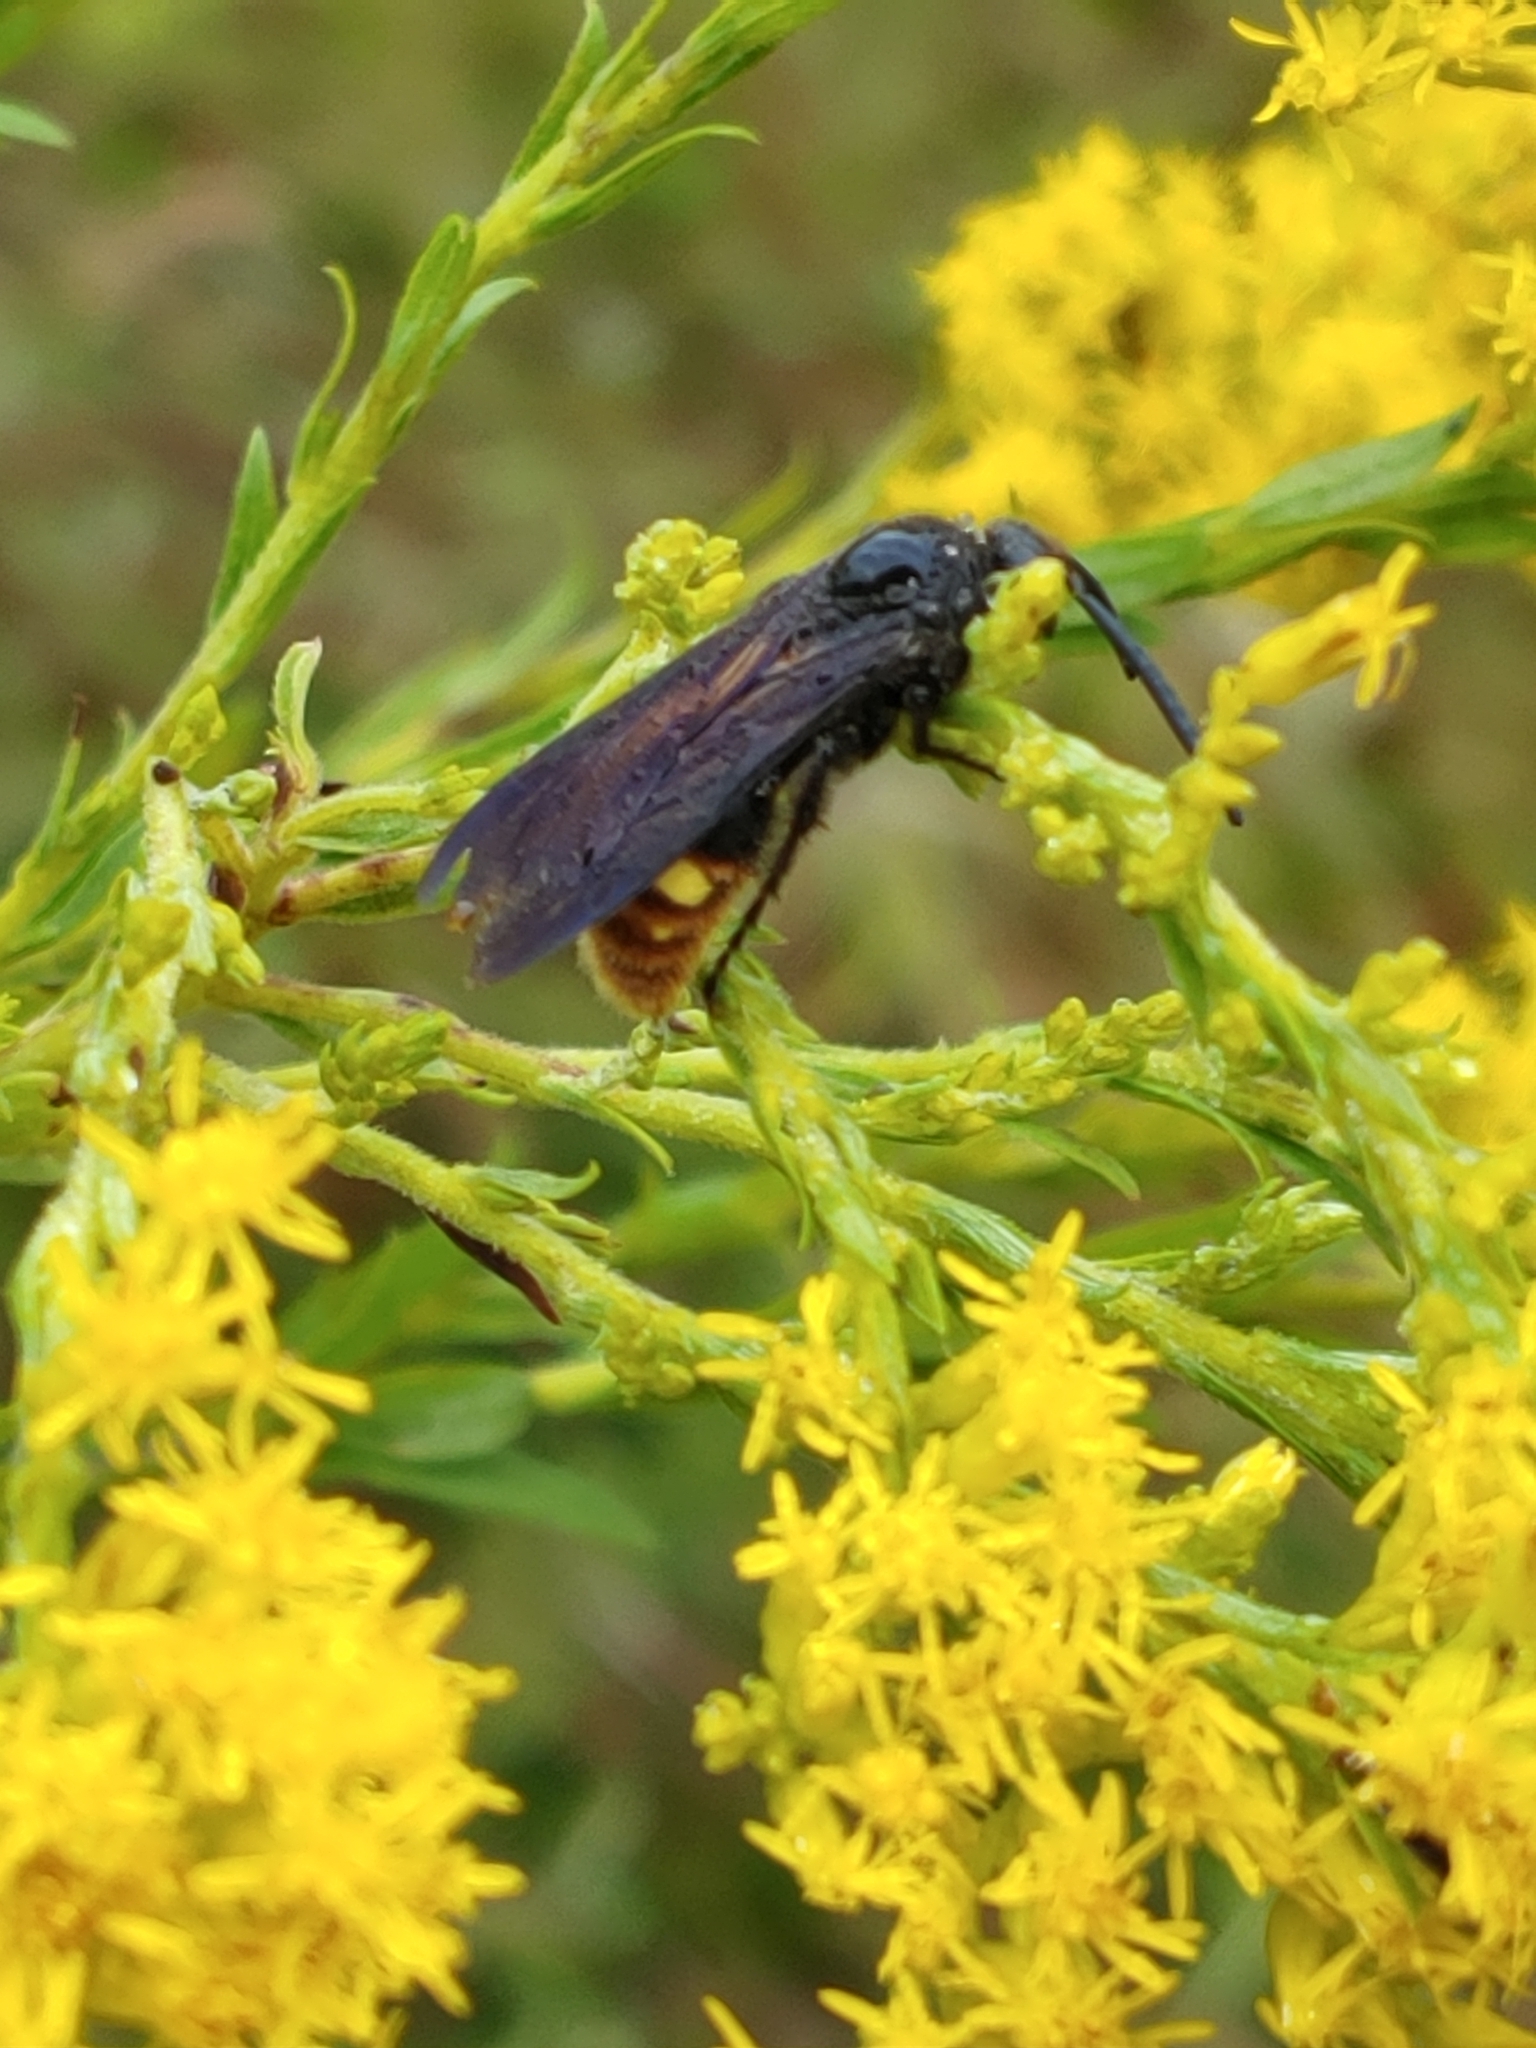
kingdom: Animalia
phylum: Arthropoda
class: Insecta
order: Hymenoptera
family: Scoliidae
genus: Scolia
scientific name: Scolia dubia
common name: Blue-winged scoliid wasp
